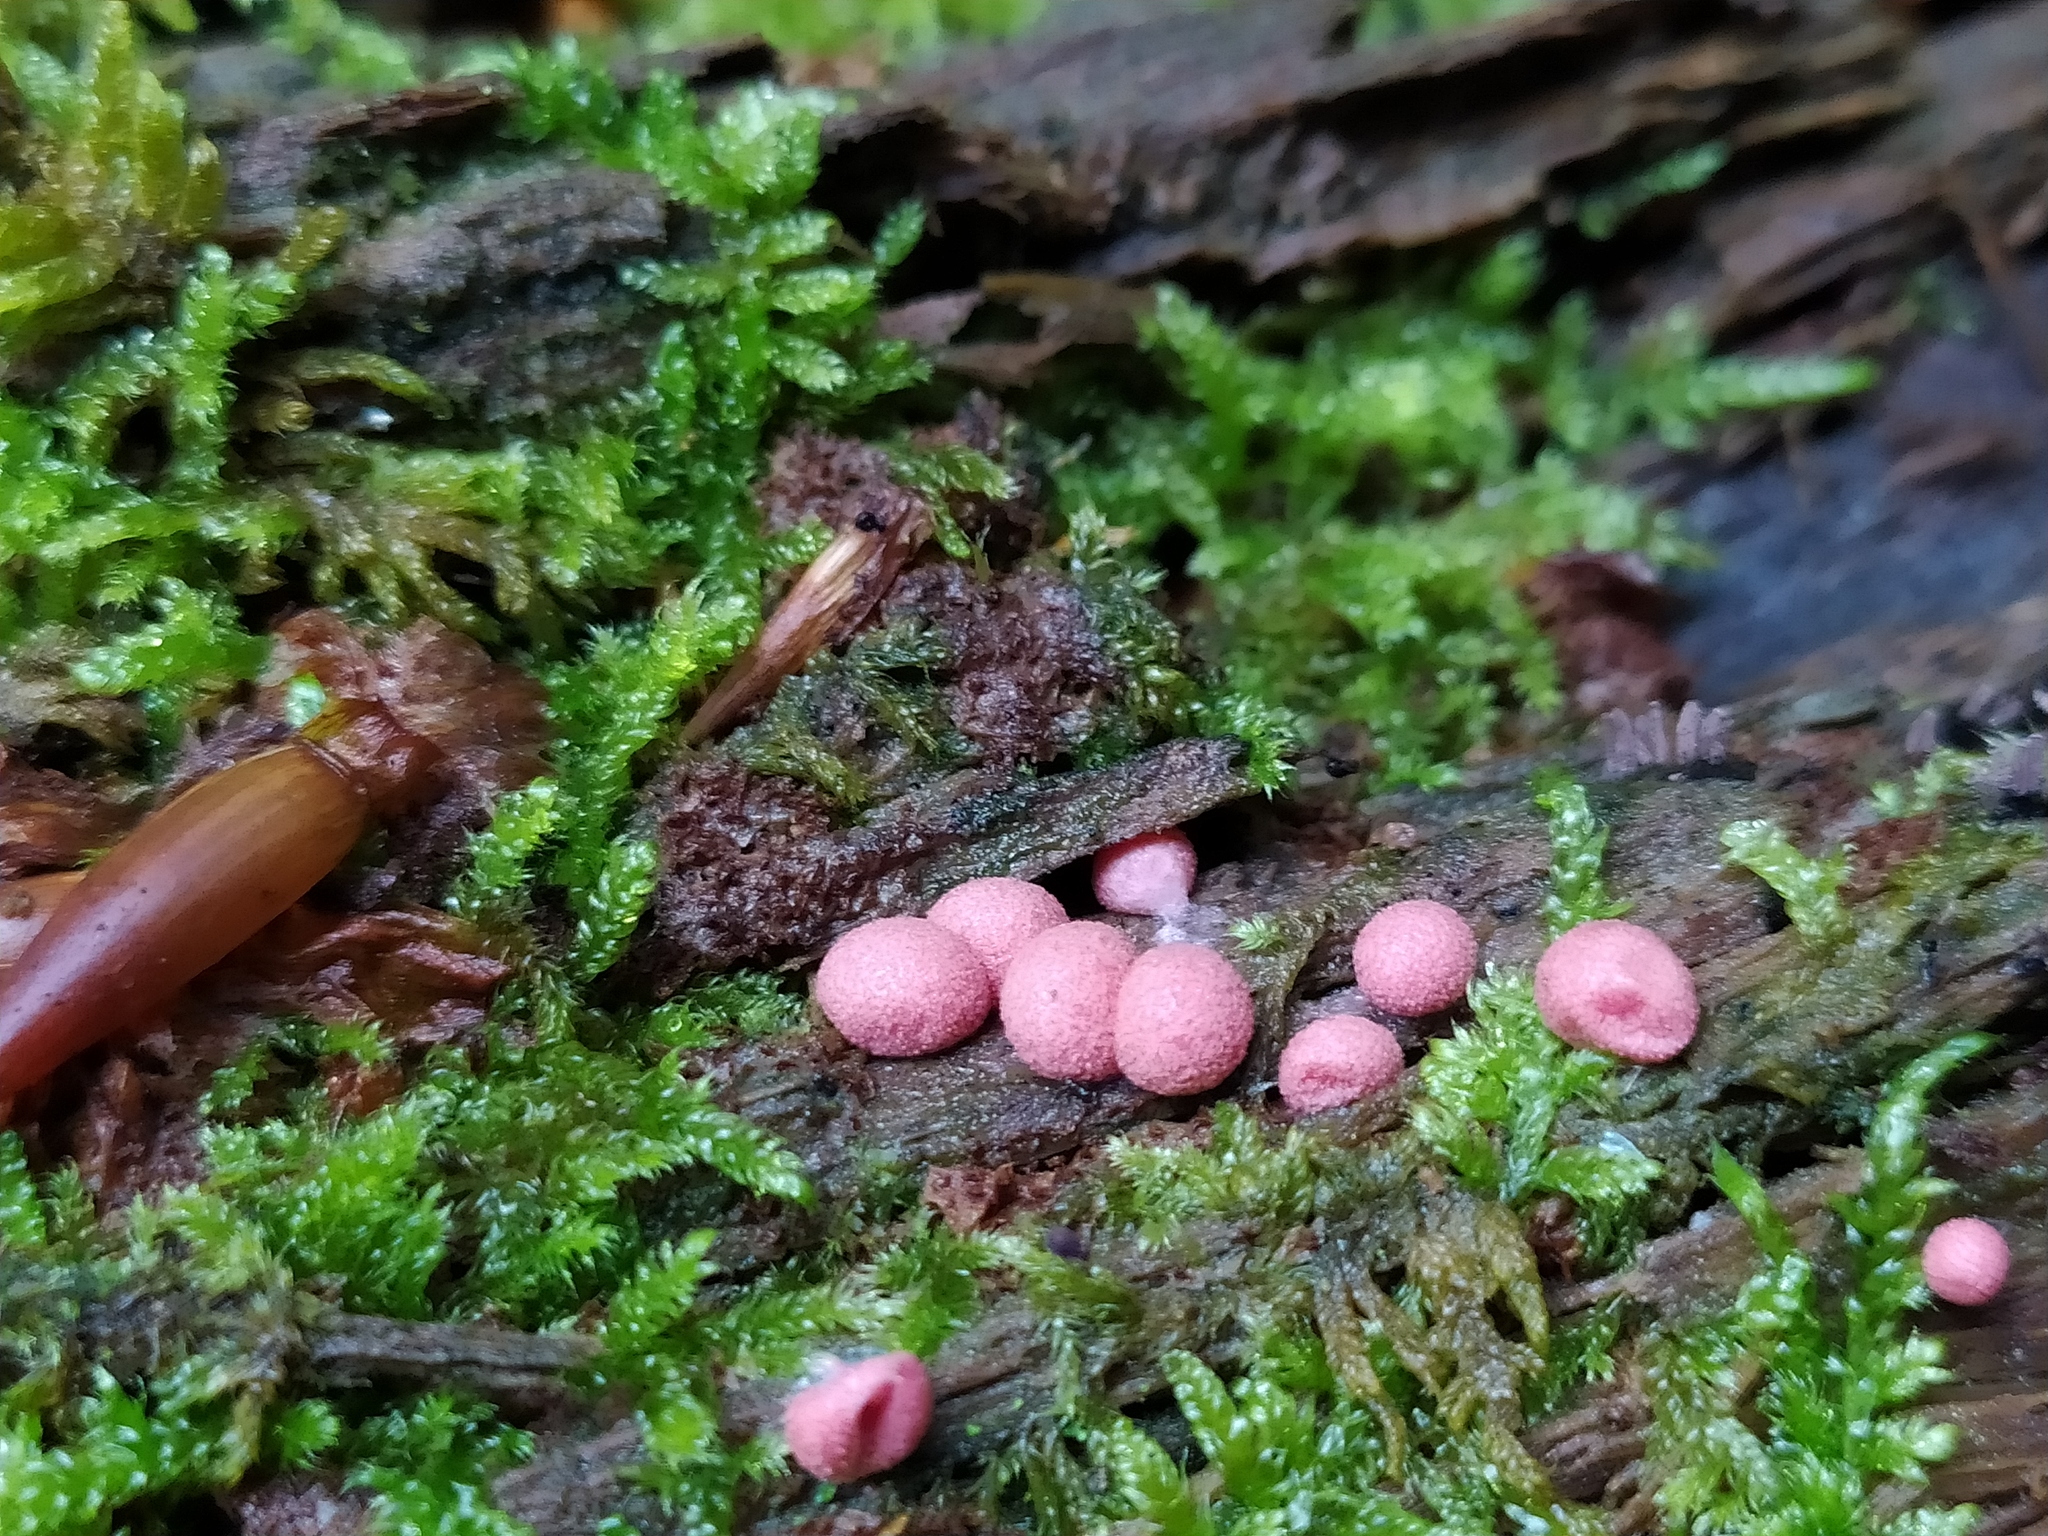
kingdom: Protozoa
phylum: Mycetozoa
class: Myxomycetes
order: Cribrariales
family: Tubiferaceae
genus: Lycogala
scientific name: Lycogala epidendrum
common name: Wolf's milk
